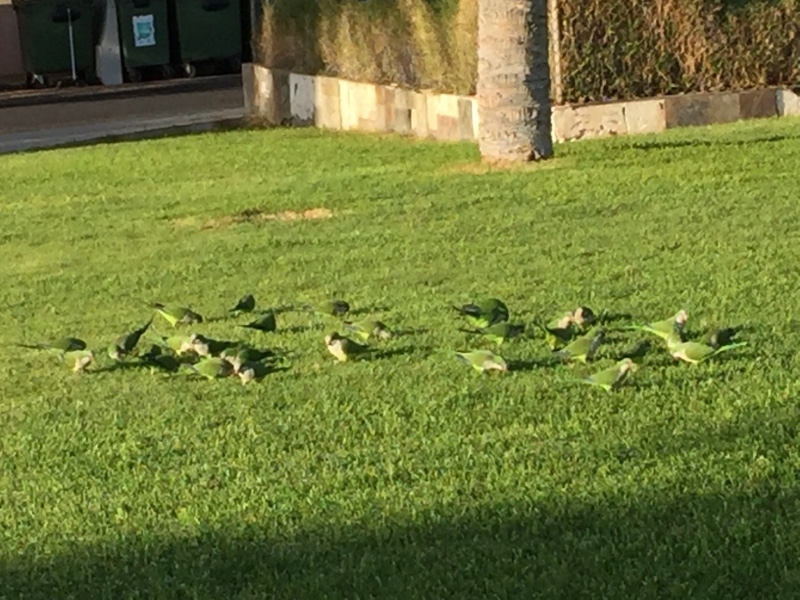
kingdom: Animalia
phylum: Chordata
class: Aves
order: Psittaciformes
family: Psittacidae
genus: Myiopsitta
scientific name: Myiopsitta monachus
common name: Monk parakeet
